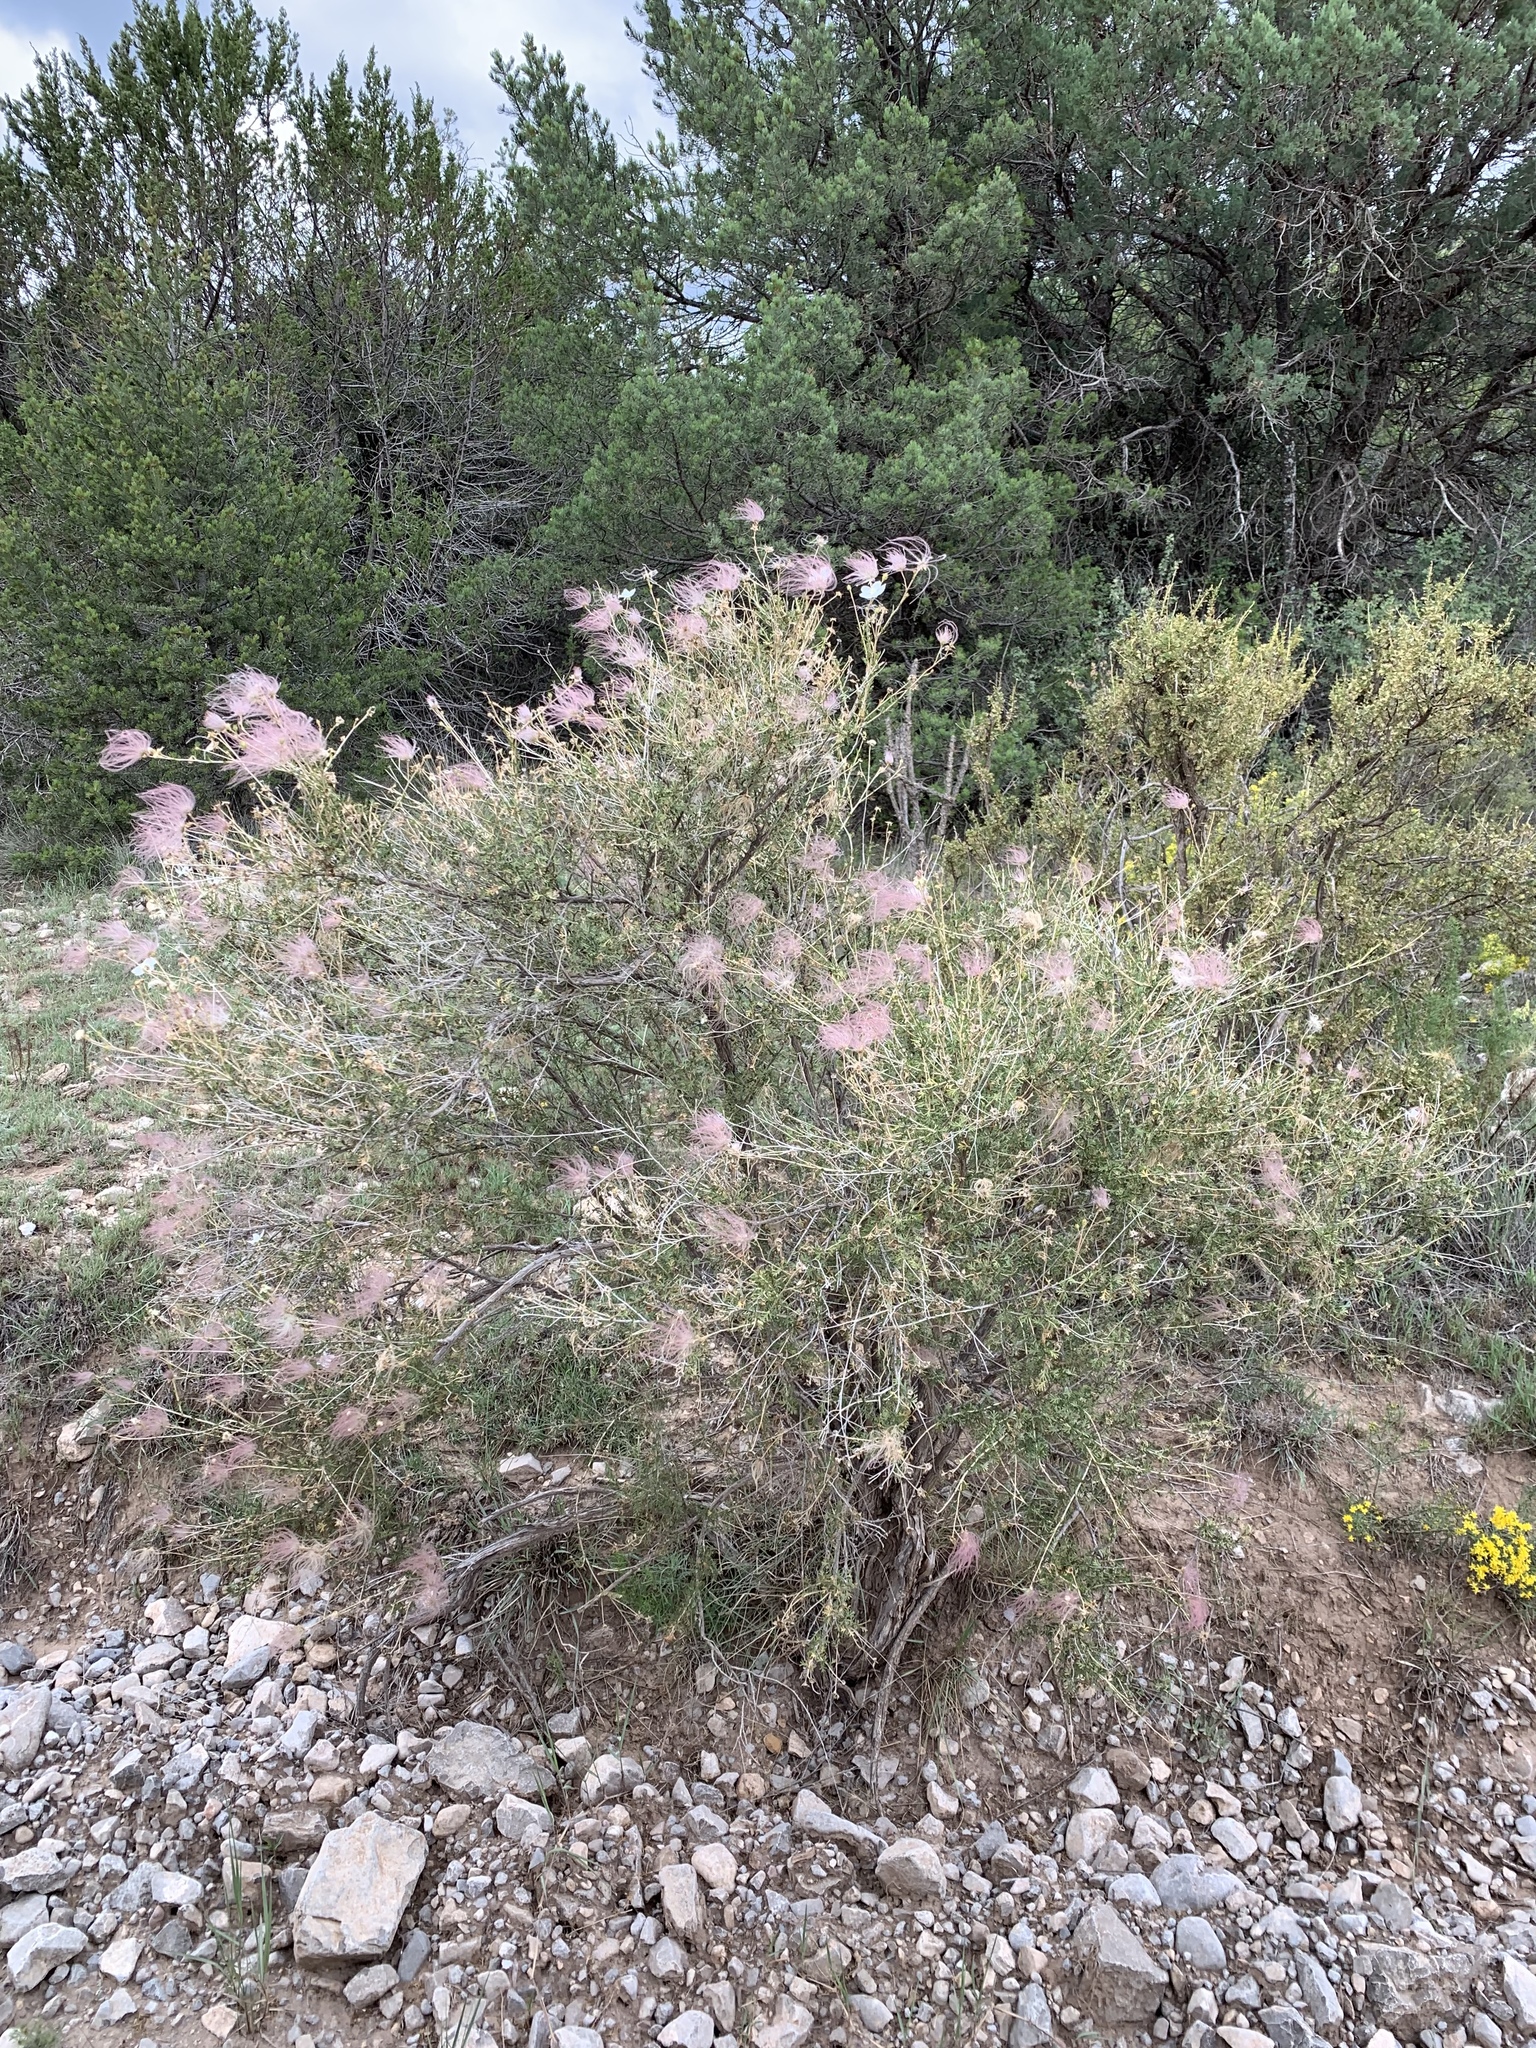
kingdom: Plantae
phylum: Tracheophyta
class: Magnoliopsida
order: Rosales
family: Rosaceae
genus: Fallugia
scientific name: Fallugia paradoxa
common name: Apache-plume
